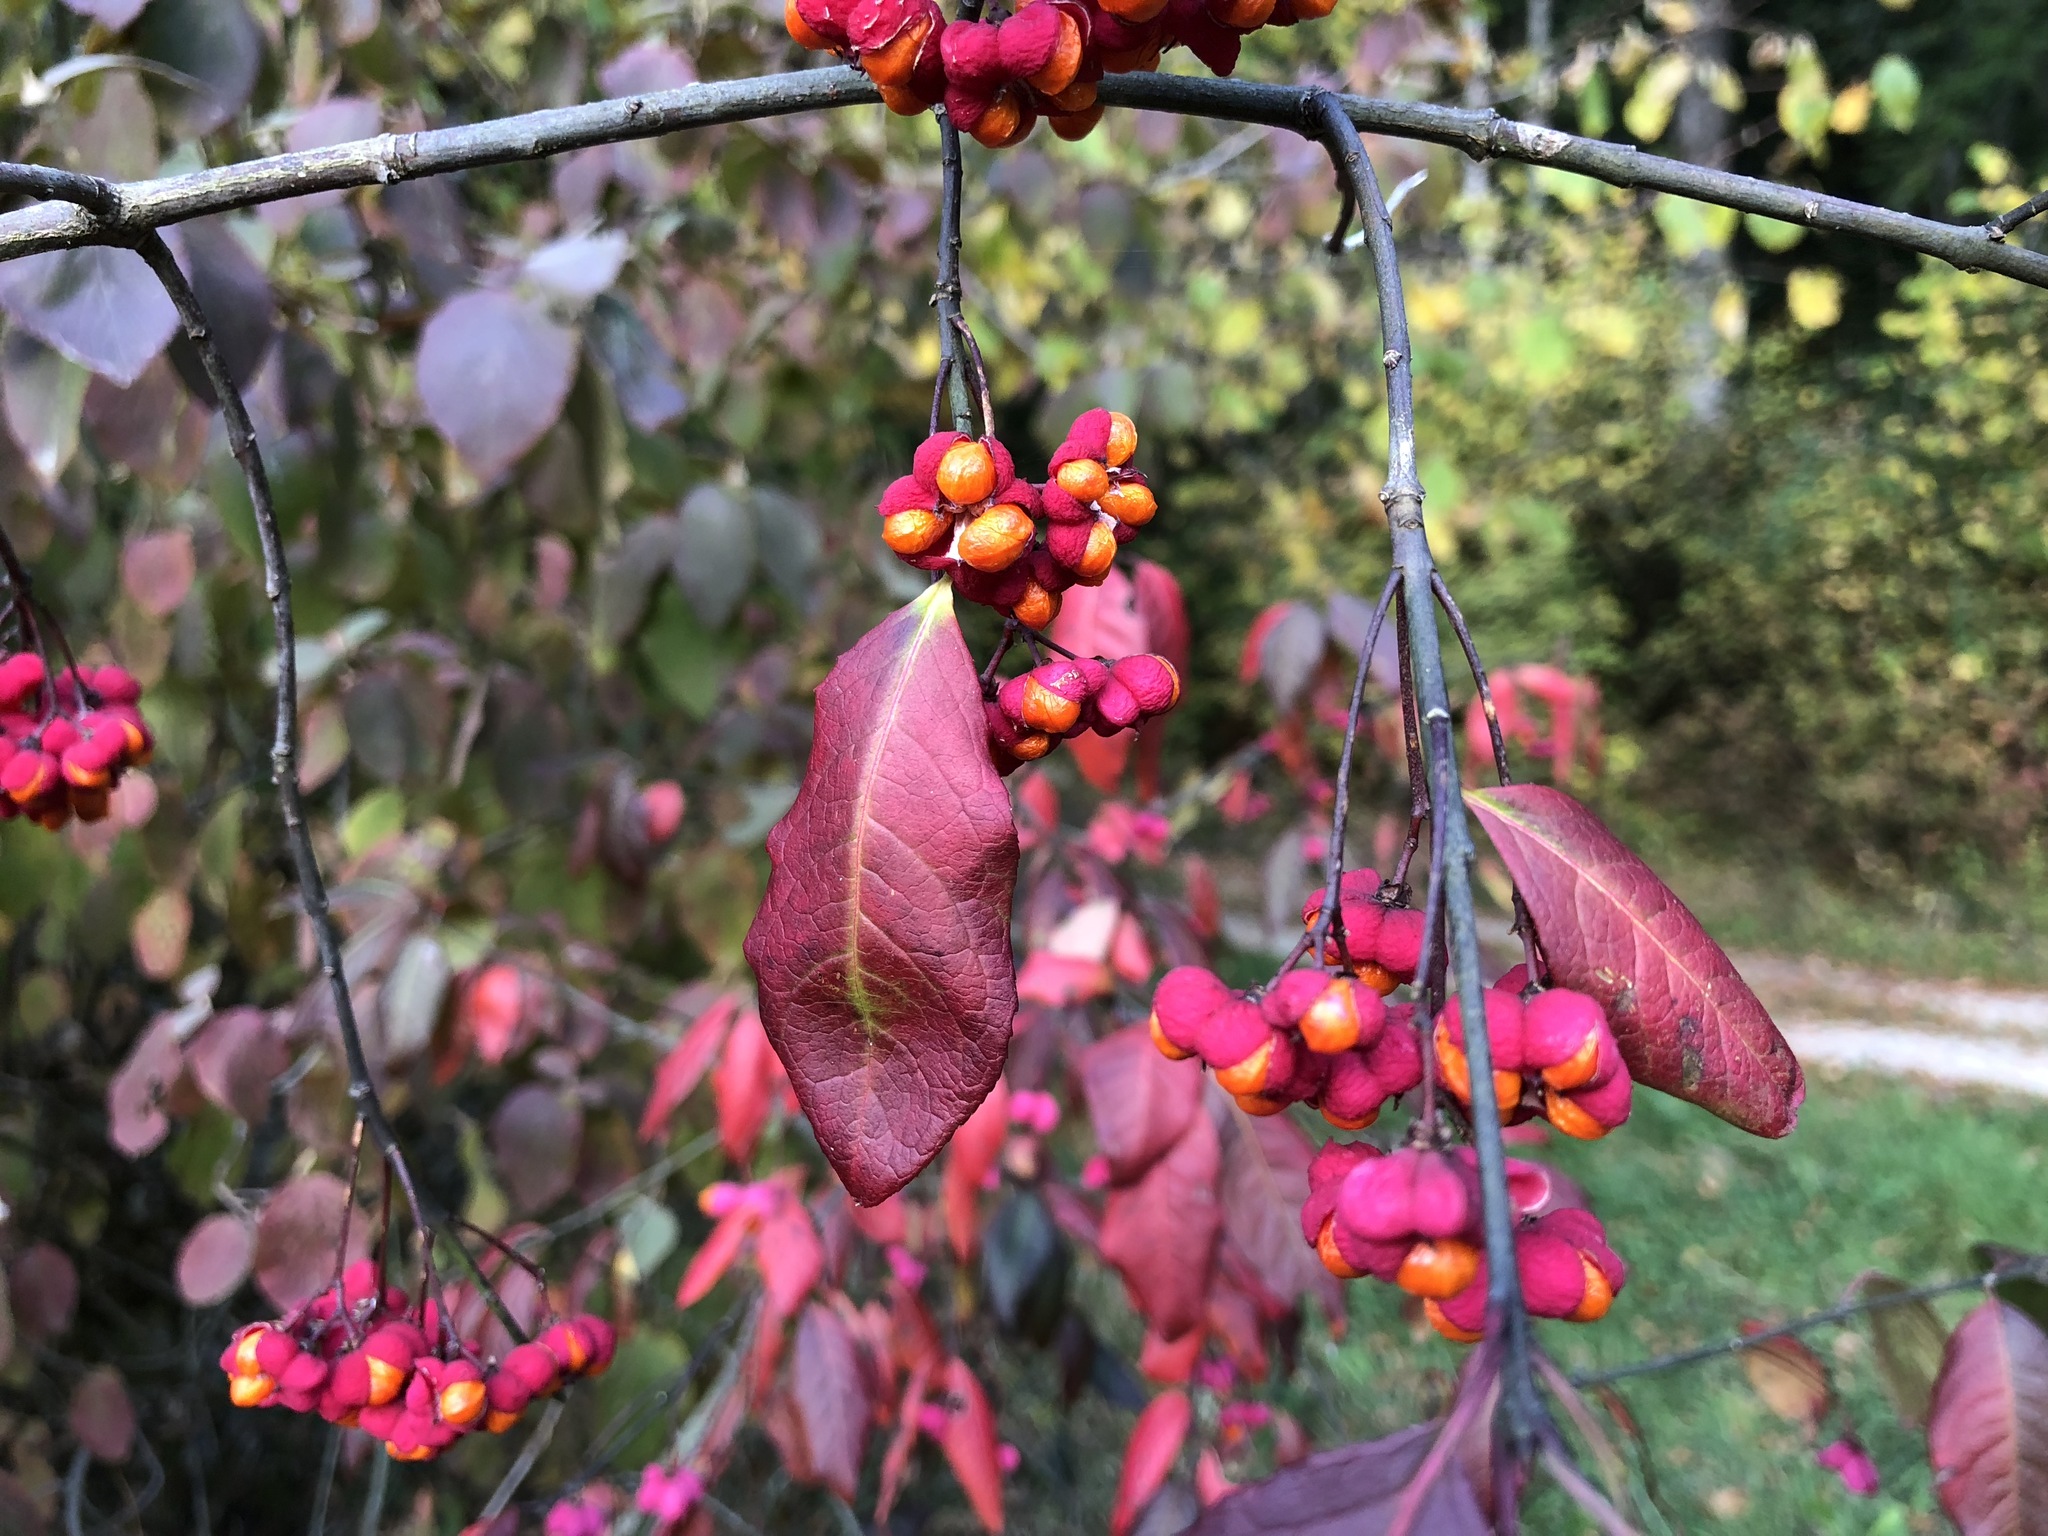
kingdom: Plantae
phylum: Tracheophyta
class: Magnoliopsida
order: Celastrales
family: Celastraceae
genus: Euonymus
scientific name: Euonymus europaeus
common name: Spindle
